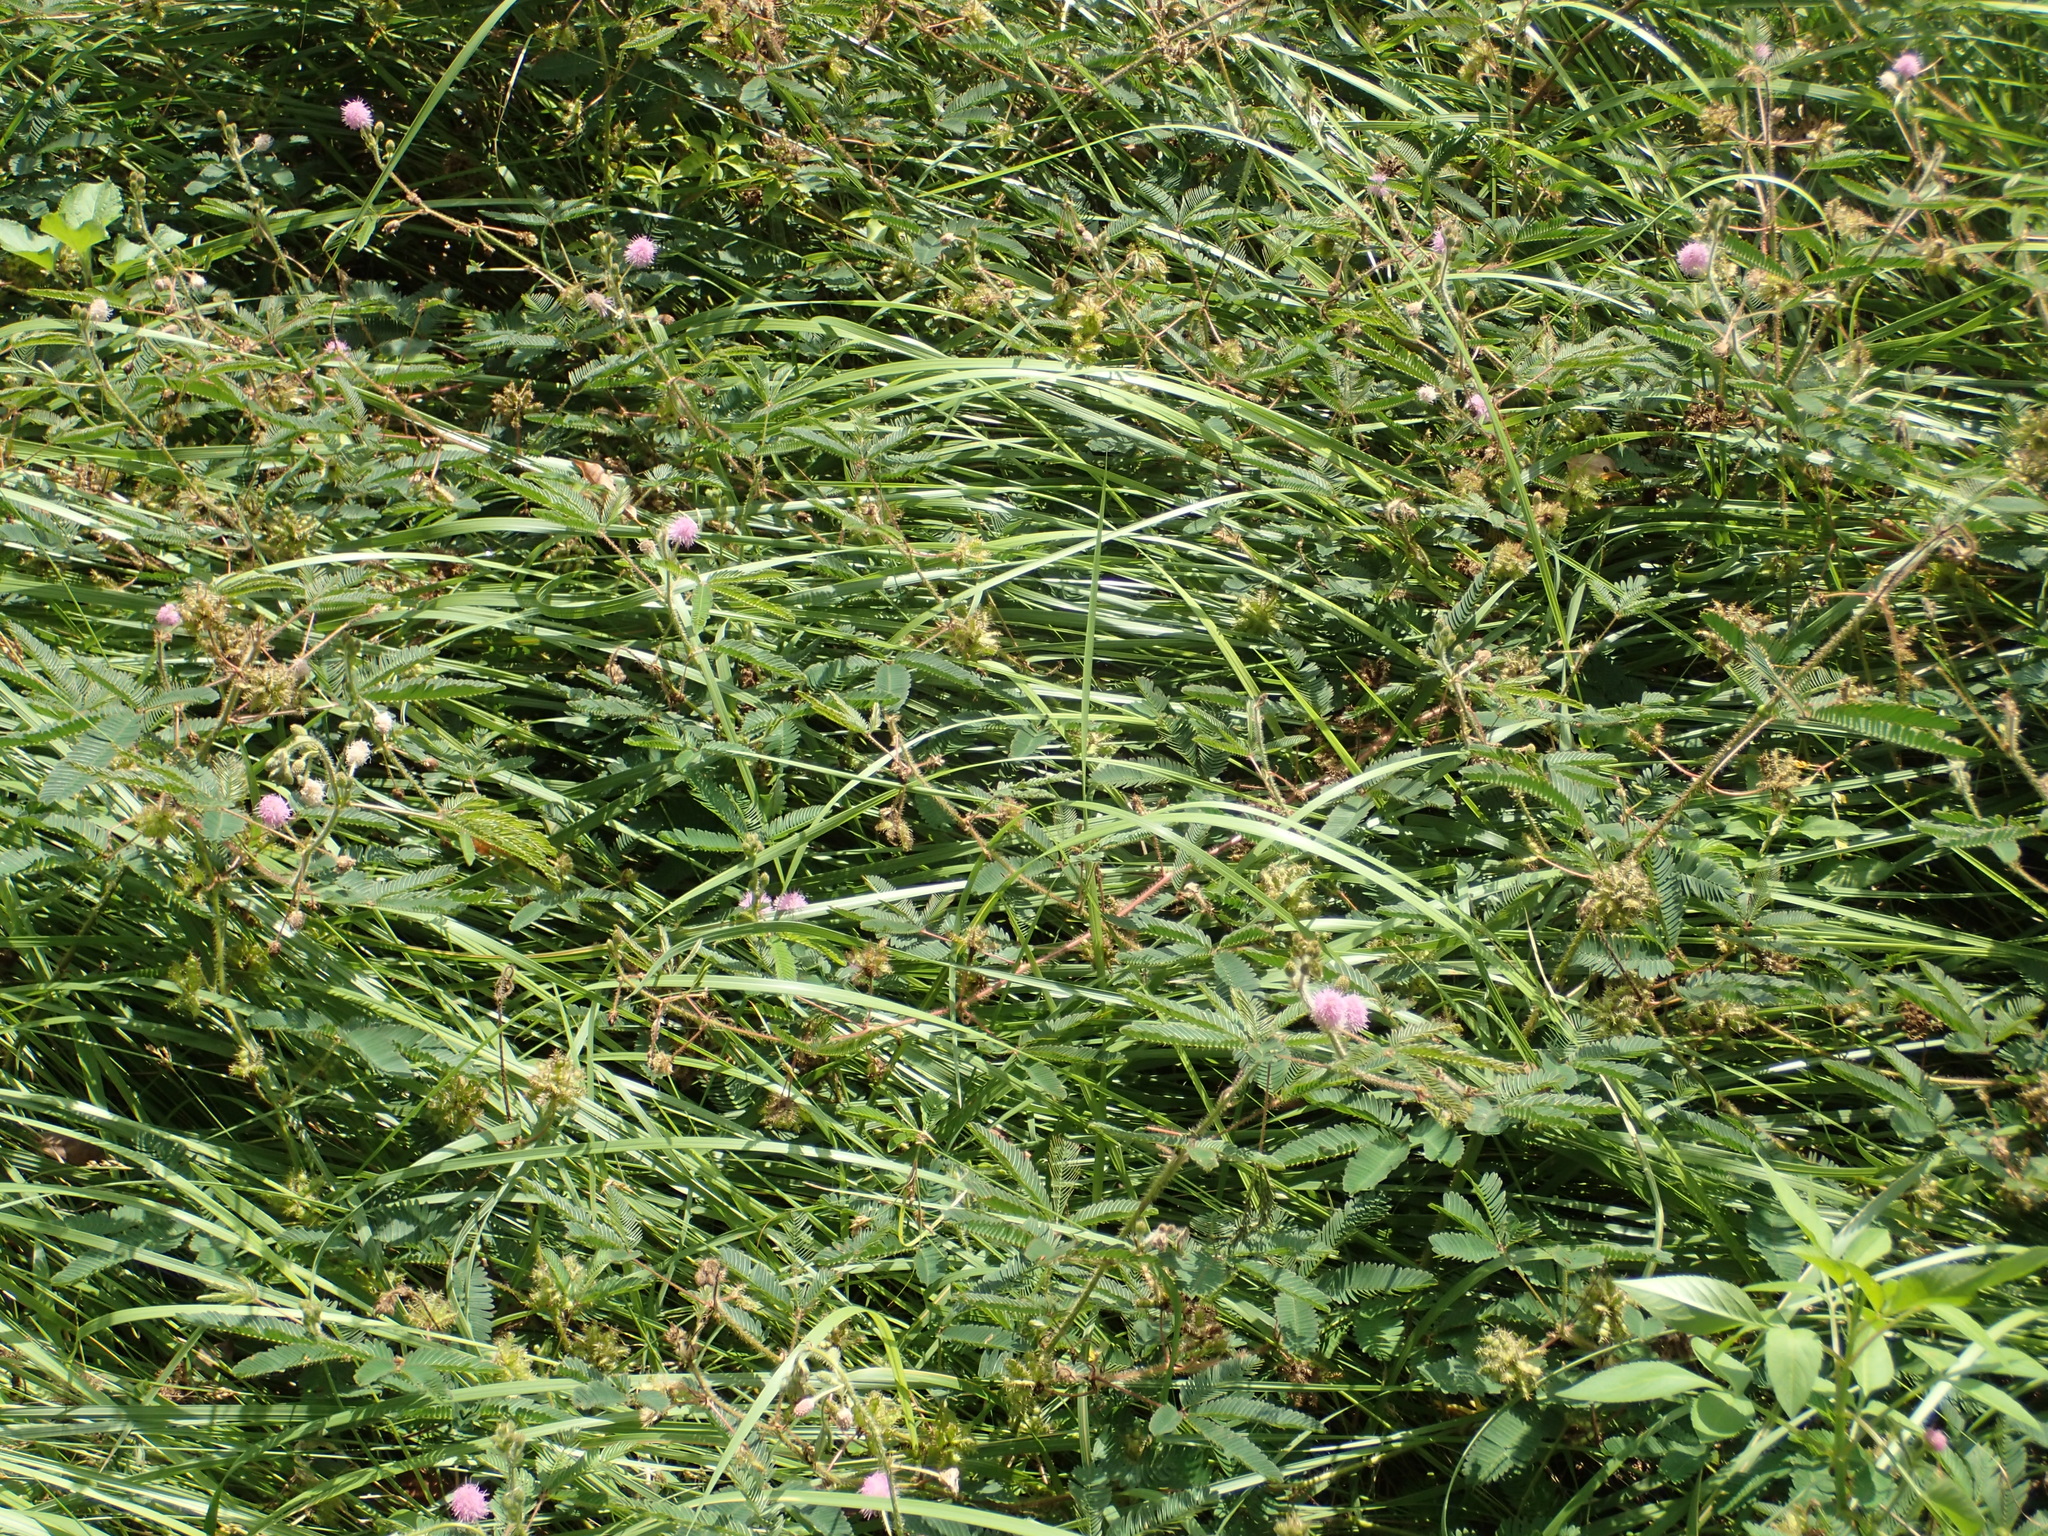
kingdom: Plantae
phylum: Tracheophyta
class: Magnoliopsida
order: Fabales
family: Fabaceae
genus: Mimosa
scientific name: Mimosa pudica
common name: Sensitive plant
